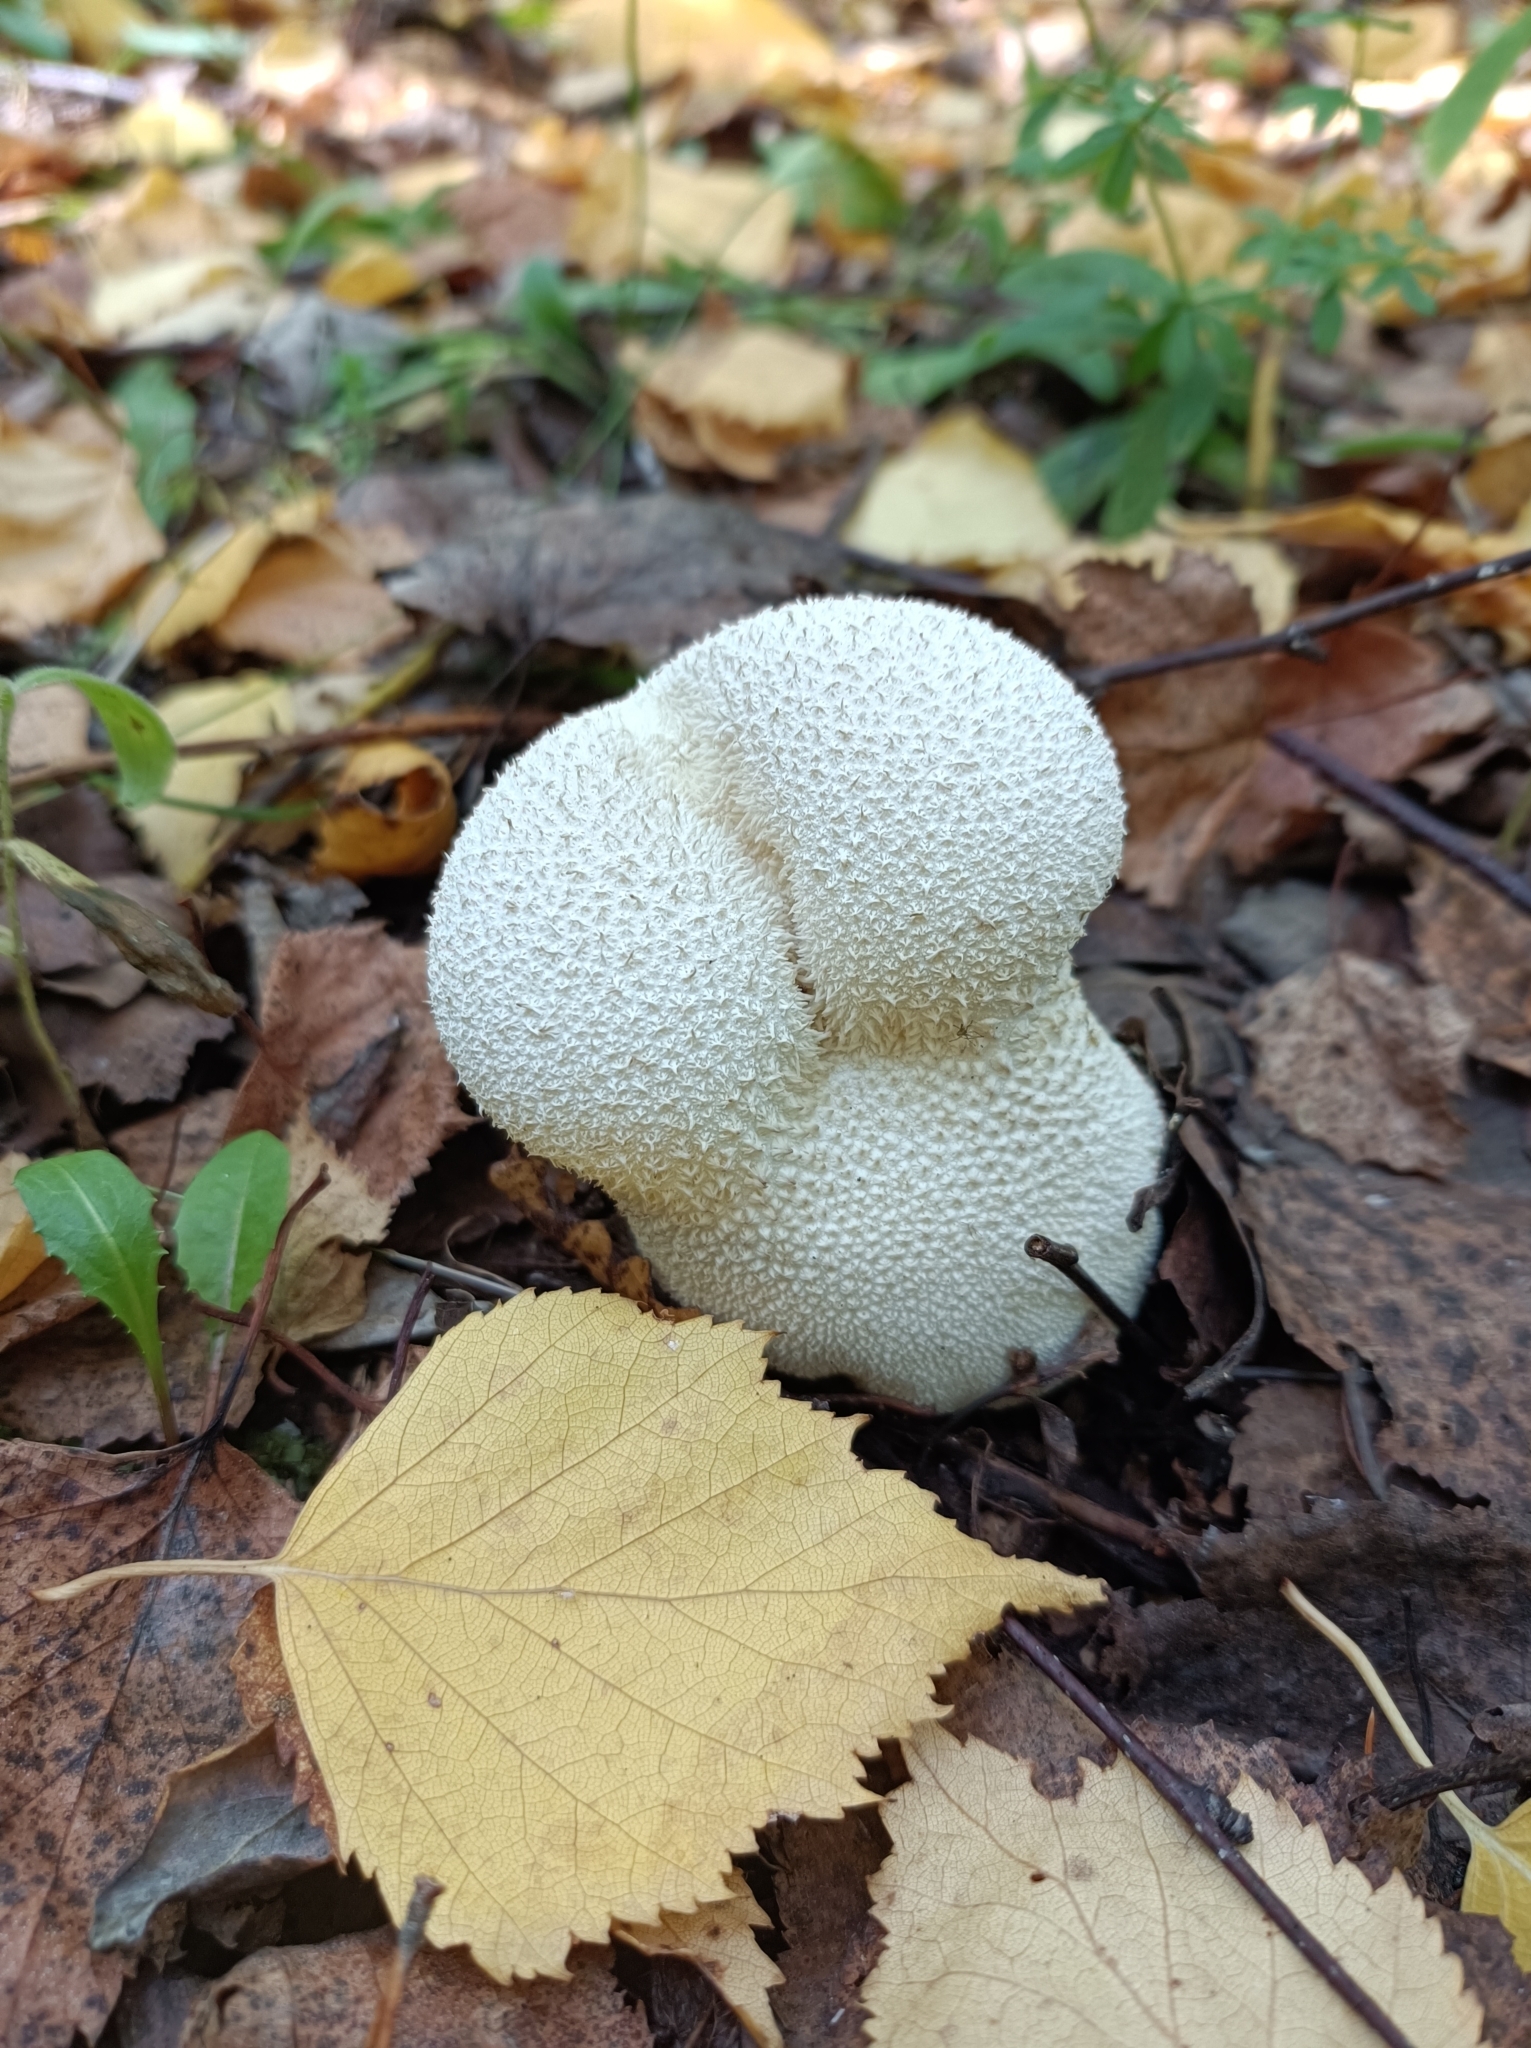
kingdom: Fungi
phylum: Basidiomycota
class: Agaricomycetes
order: Agaricales
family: Lycoperdaceae
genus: Lycoperdon
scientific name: Lycoperdon perlatum
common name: Common puffball
